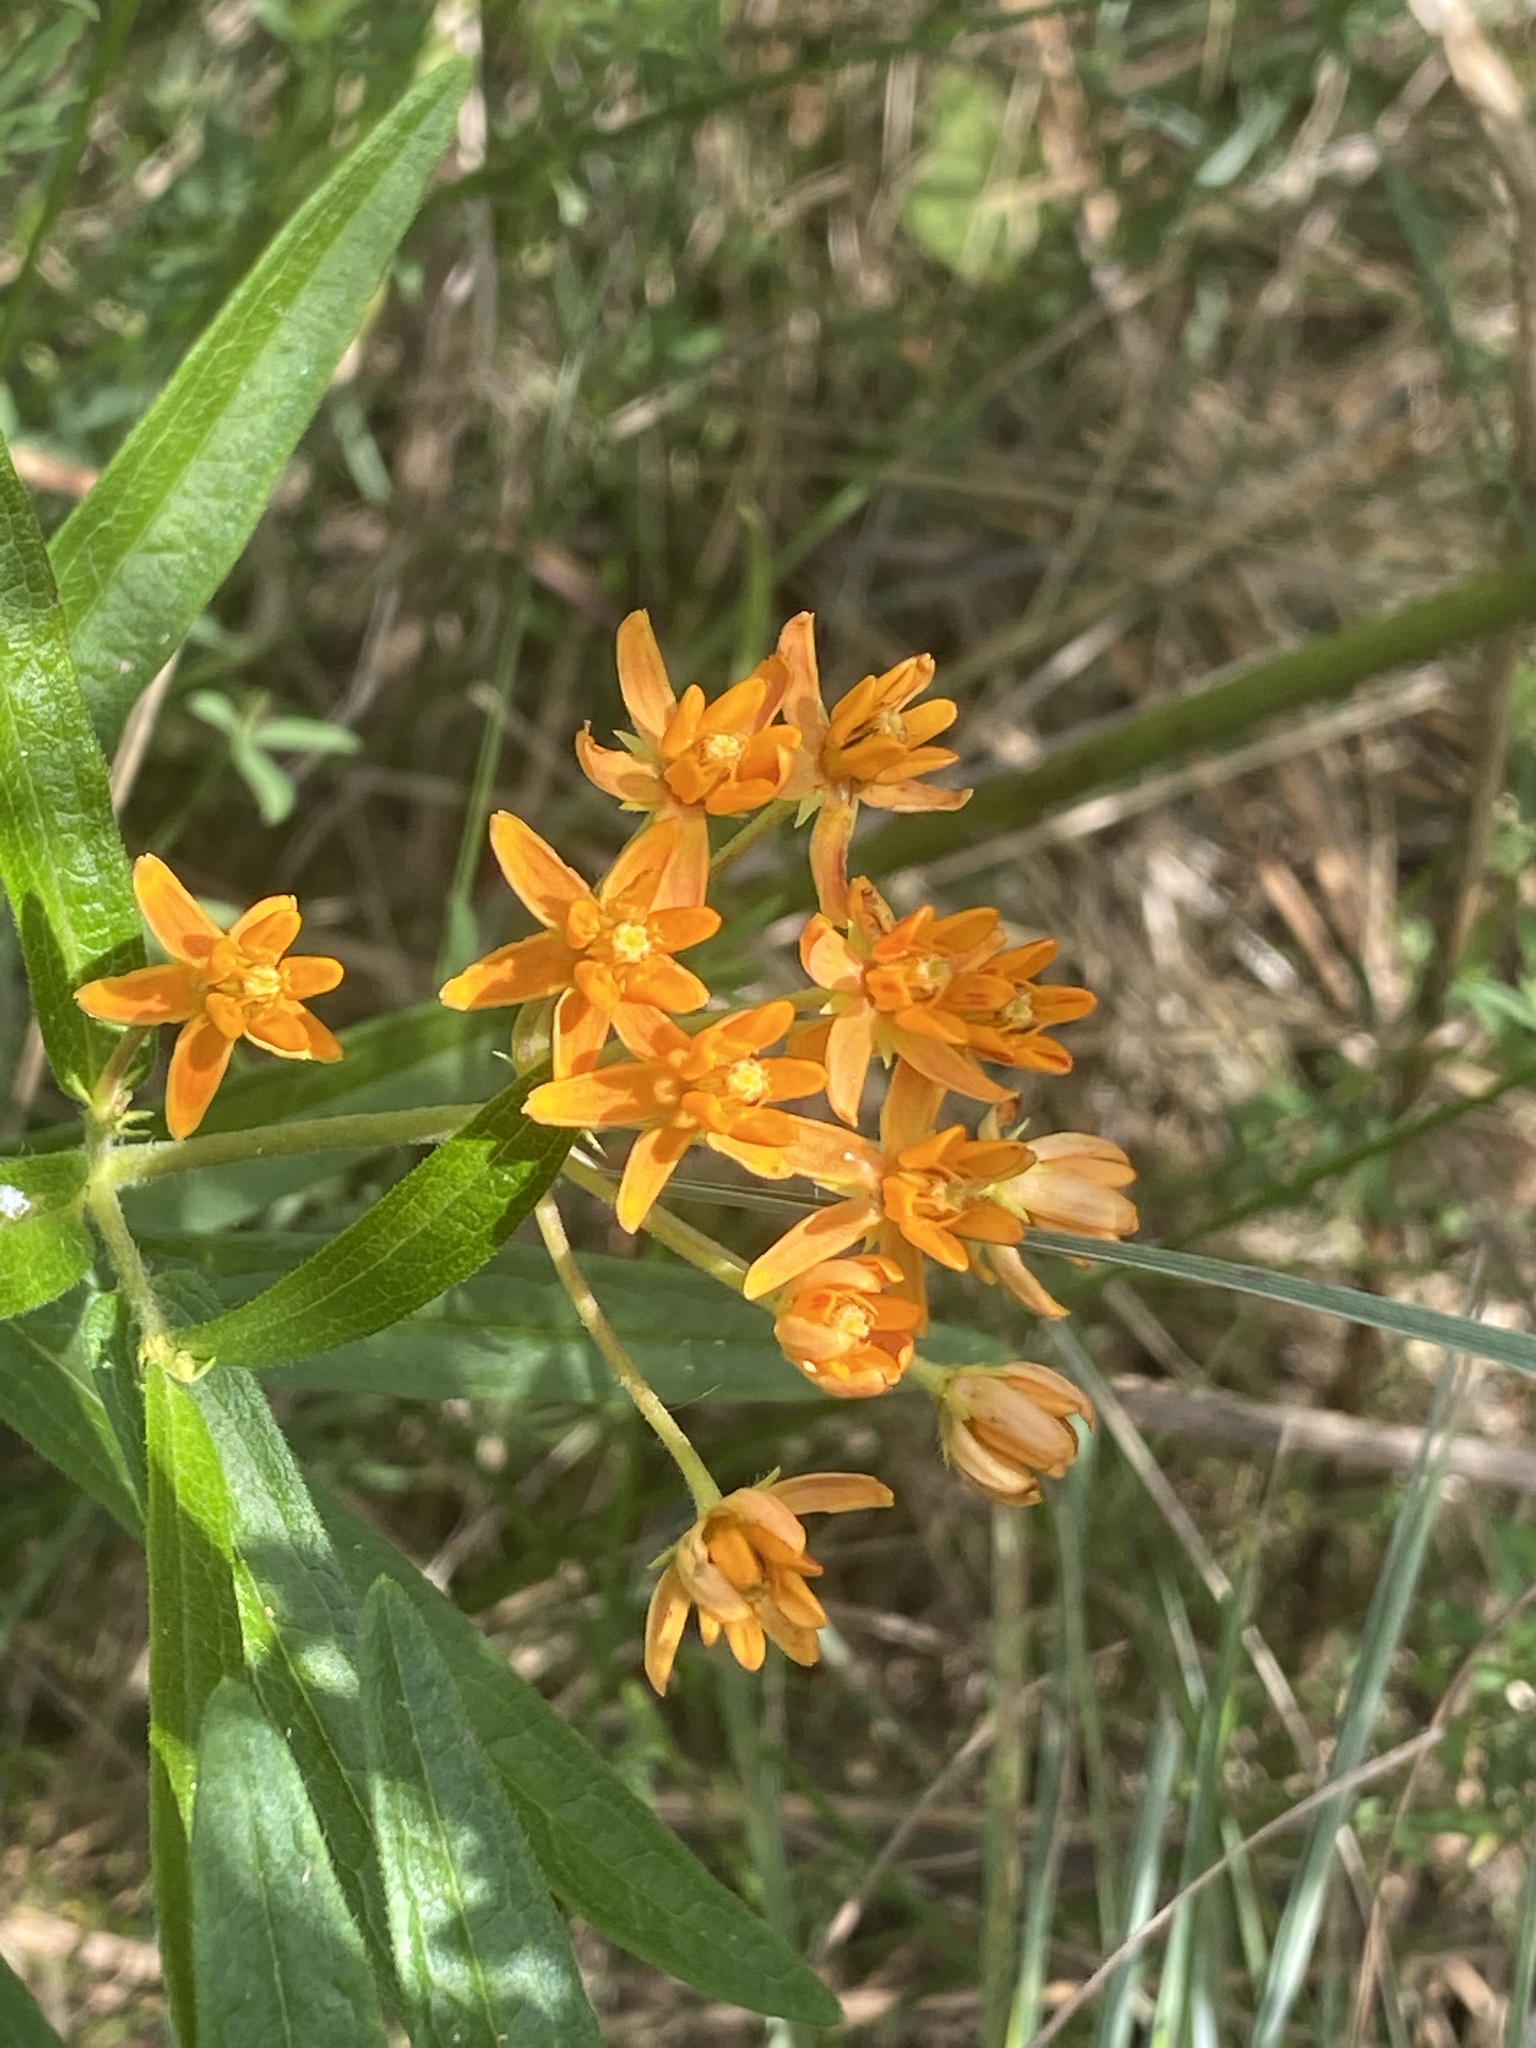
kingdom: Plantae
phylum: Tracheophyta
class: Magnoliopsida
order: Gentianales
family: Apocynaceae
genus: Asclepias
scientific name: Asclepias tuberosa
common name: Butterfly milkweed
